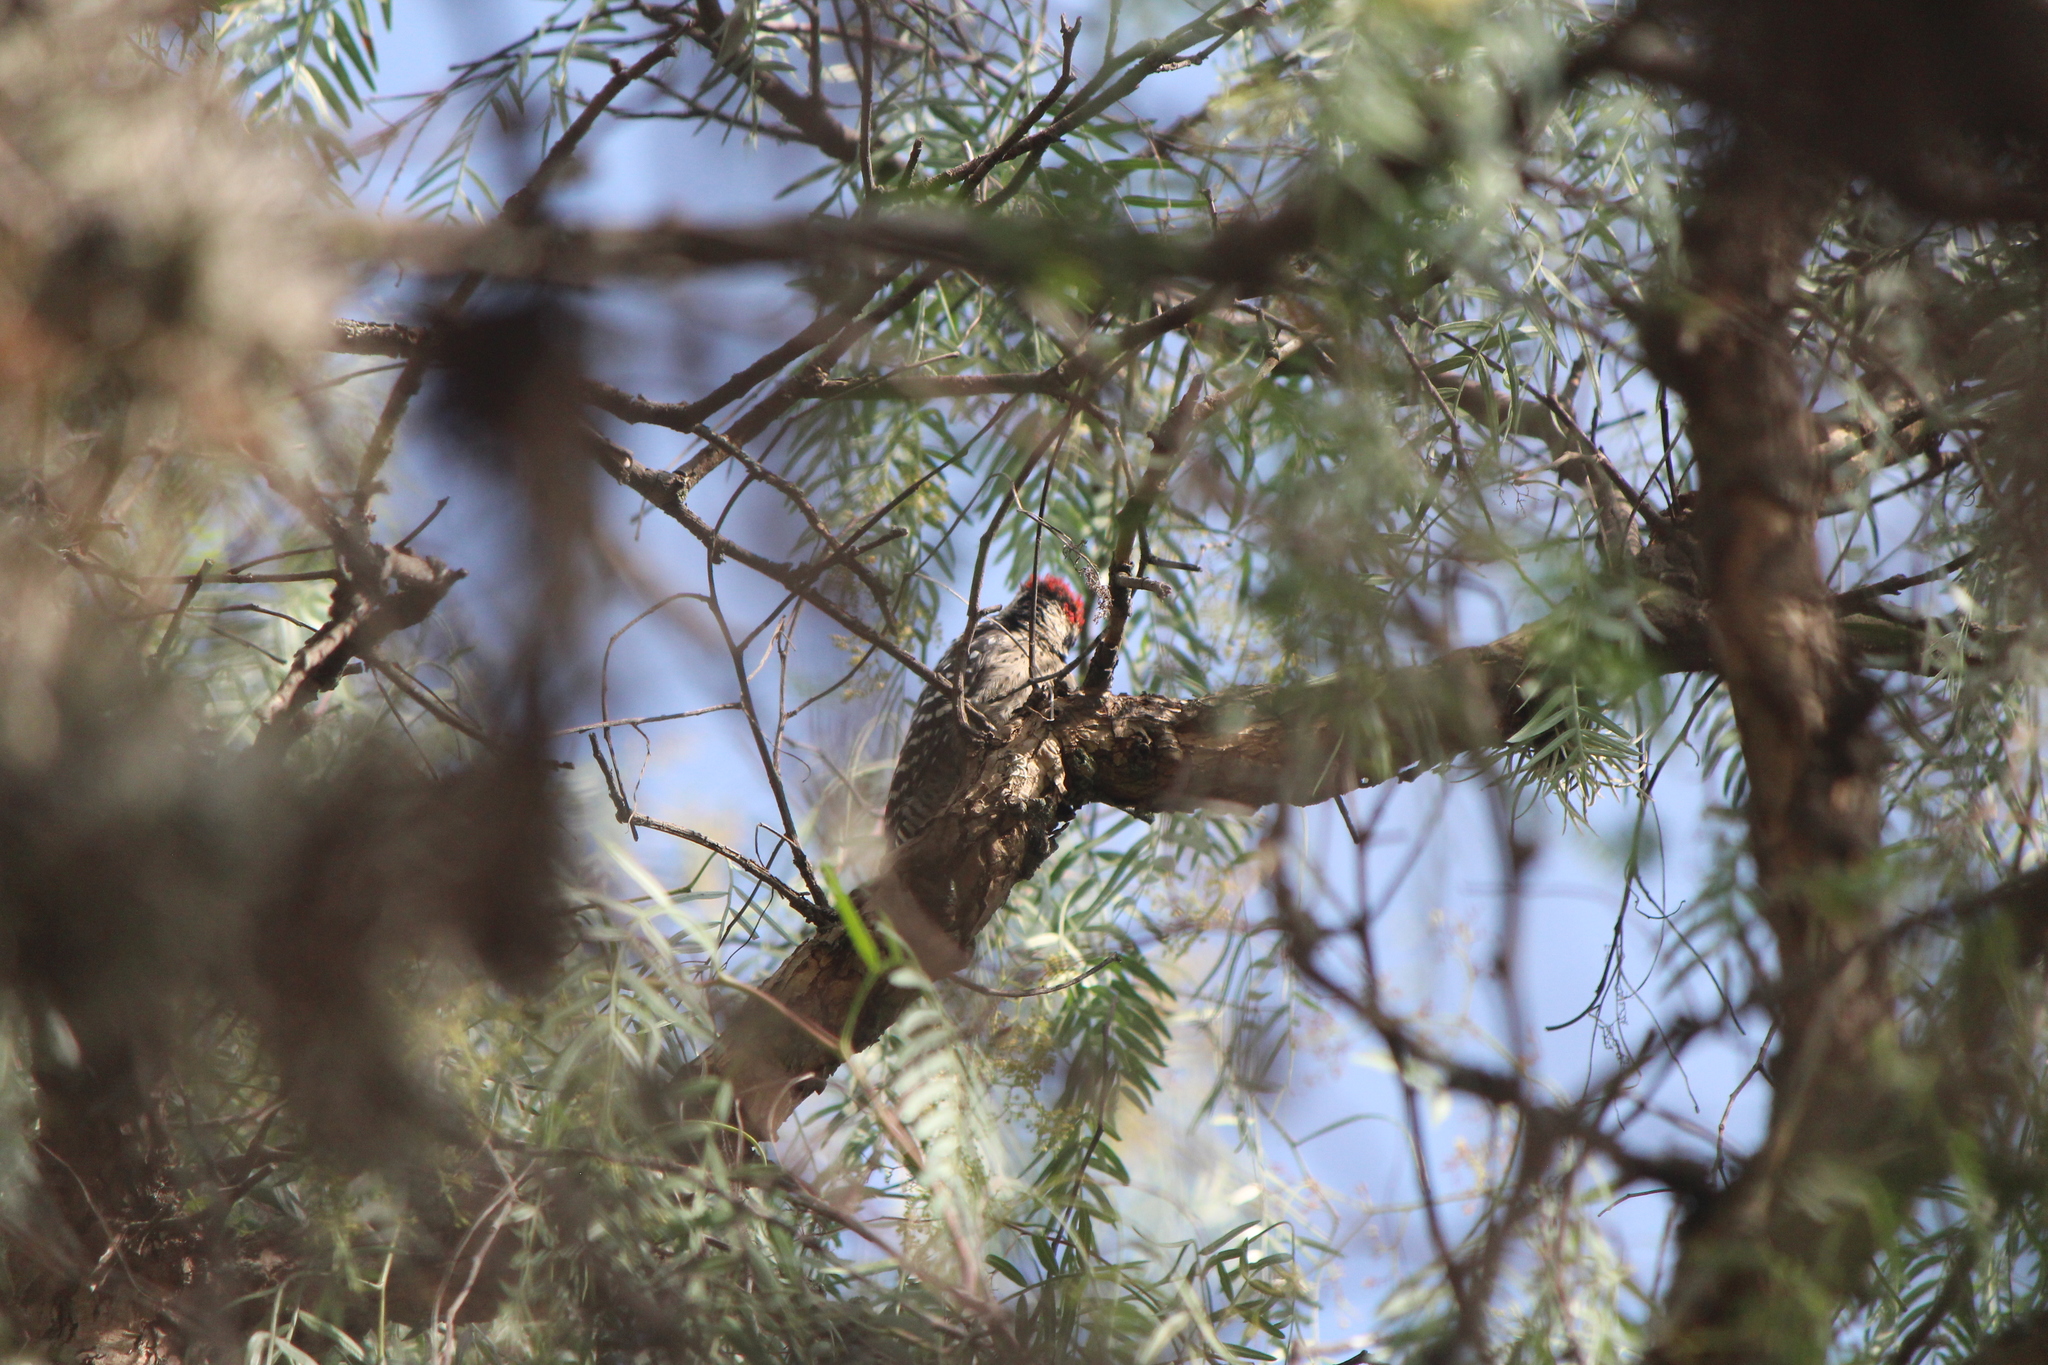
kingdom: Animalia
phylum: Chordata
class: Aves
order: Piciformes
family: Picidae
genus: Dryobates
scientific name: Dryobates scalaris
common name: Ladder-backed woodpecker
